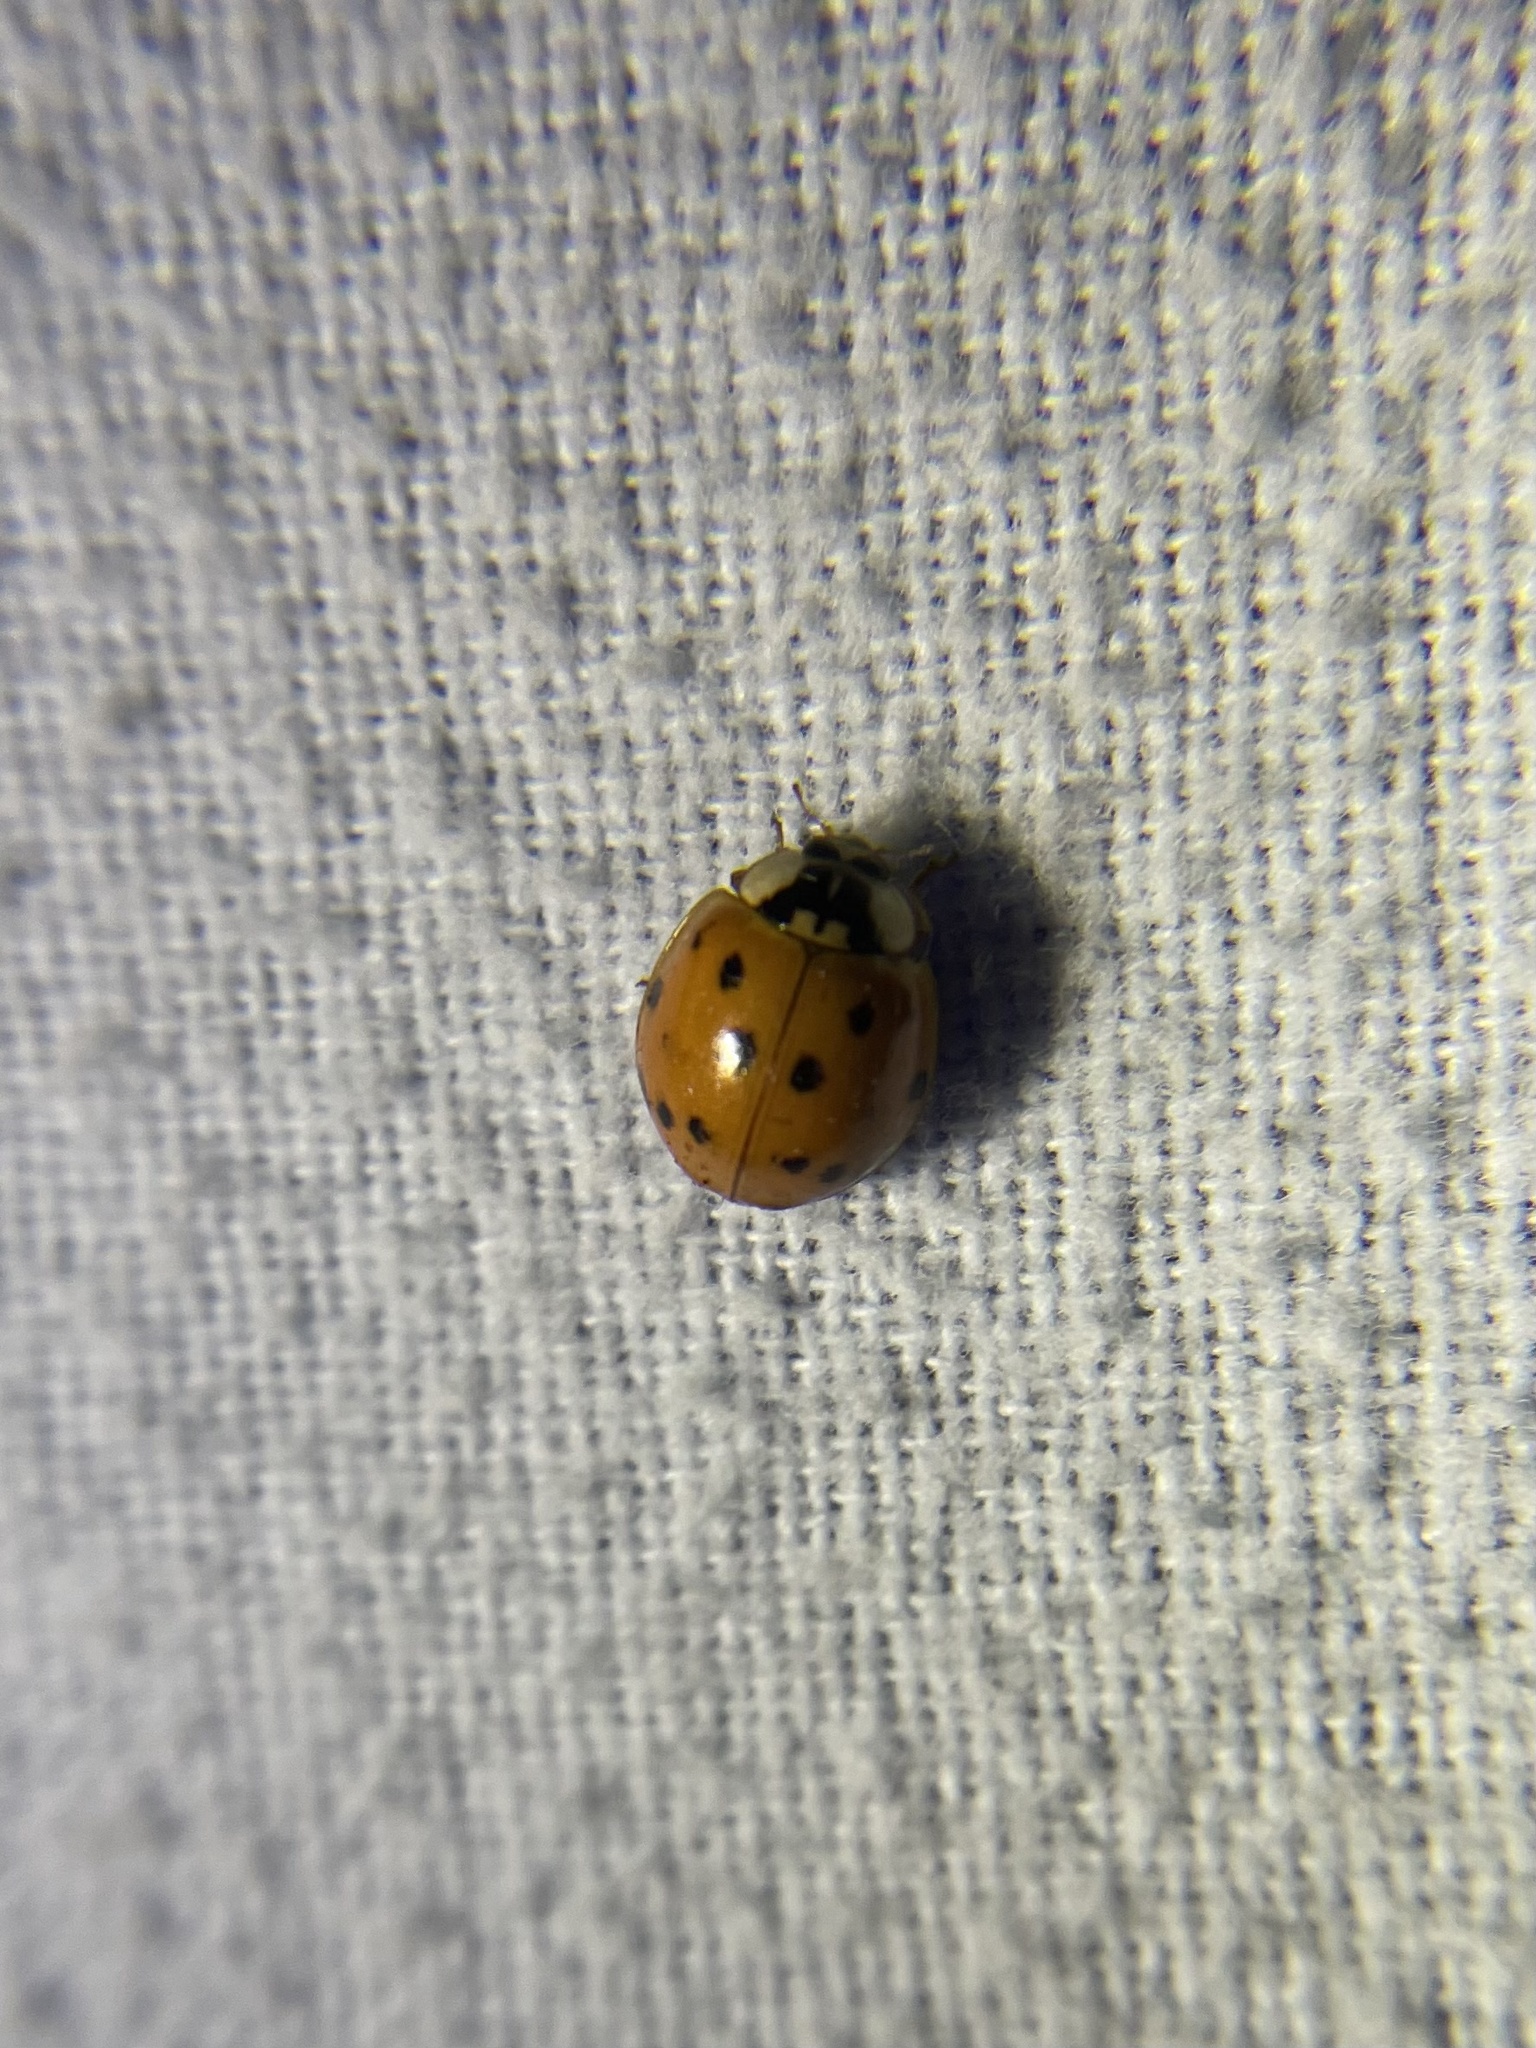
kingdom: Animalia
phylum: Arthropoda
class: Insecta
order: Coleoptera
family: Coccinellidae
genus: Harmonia
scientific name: Harmonia axyridis
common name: Harlequin ladybird
